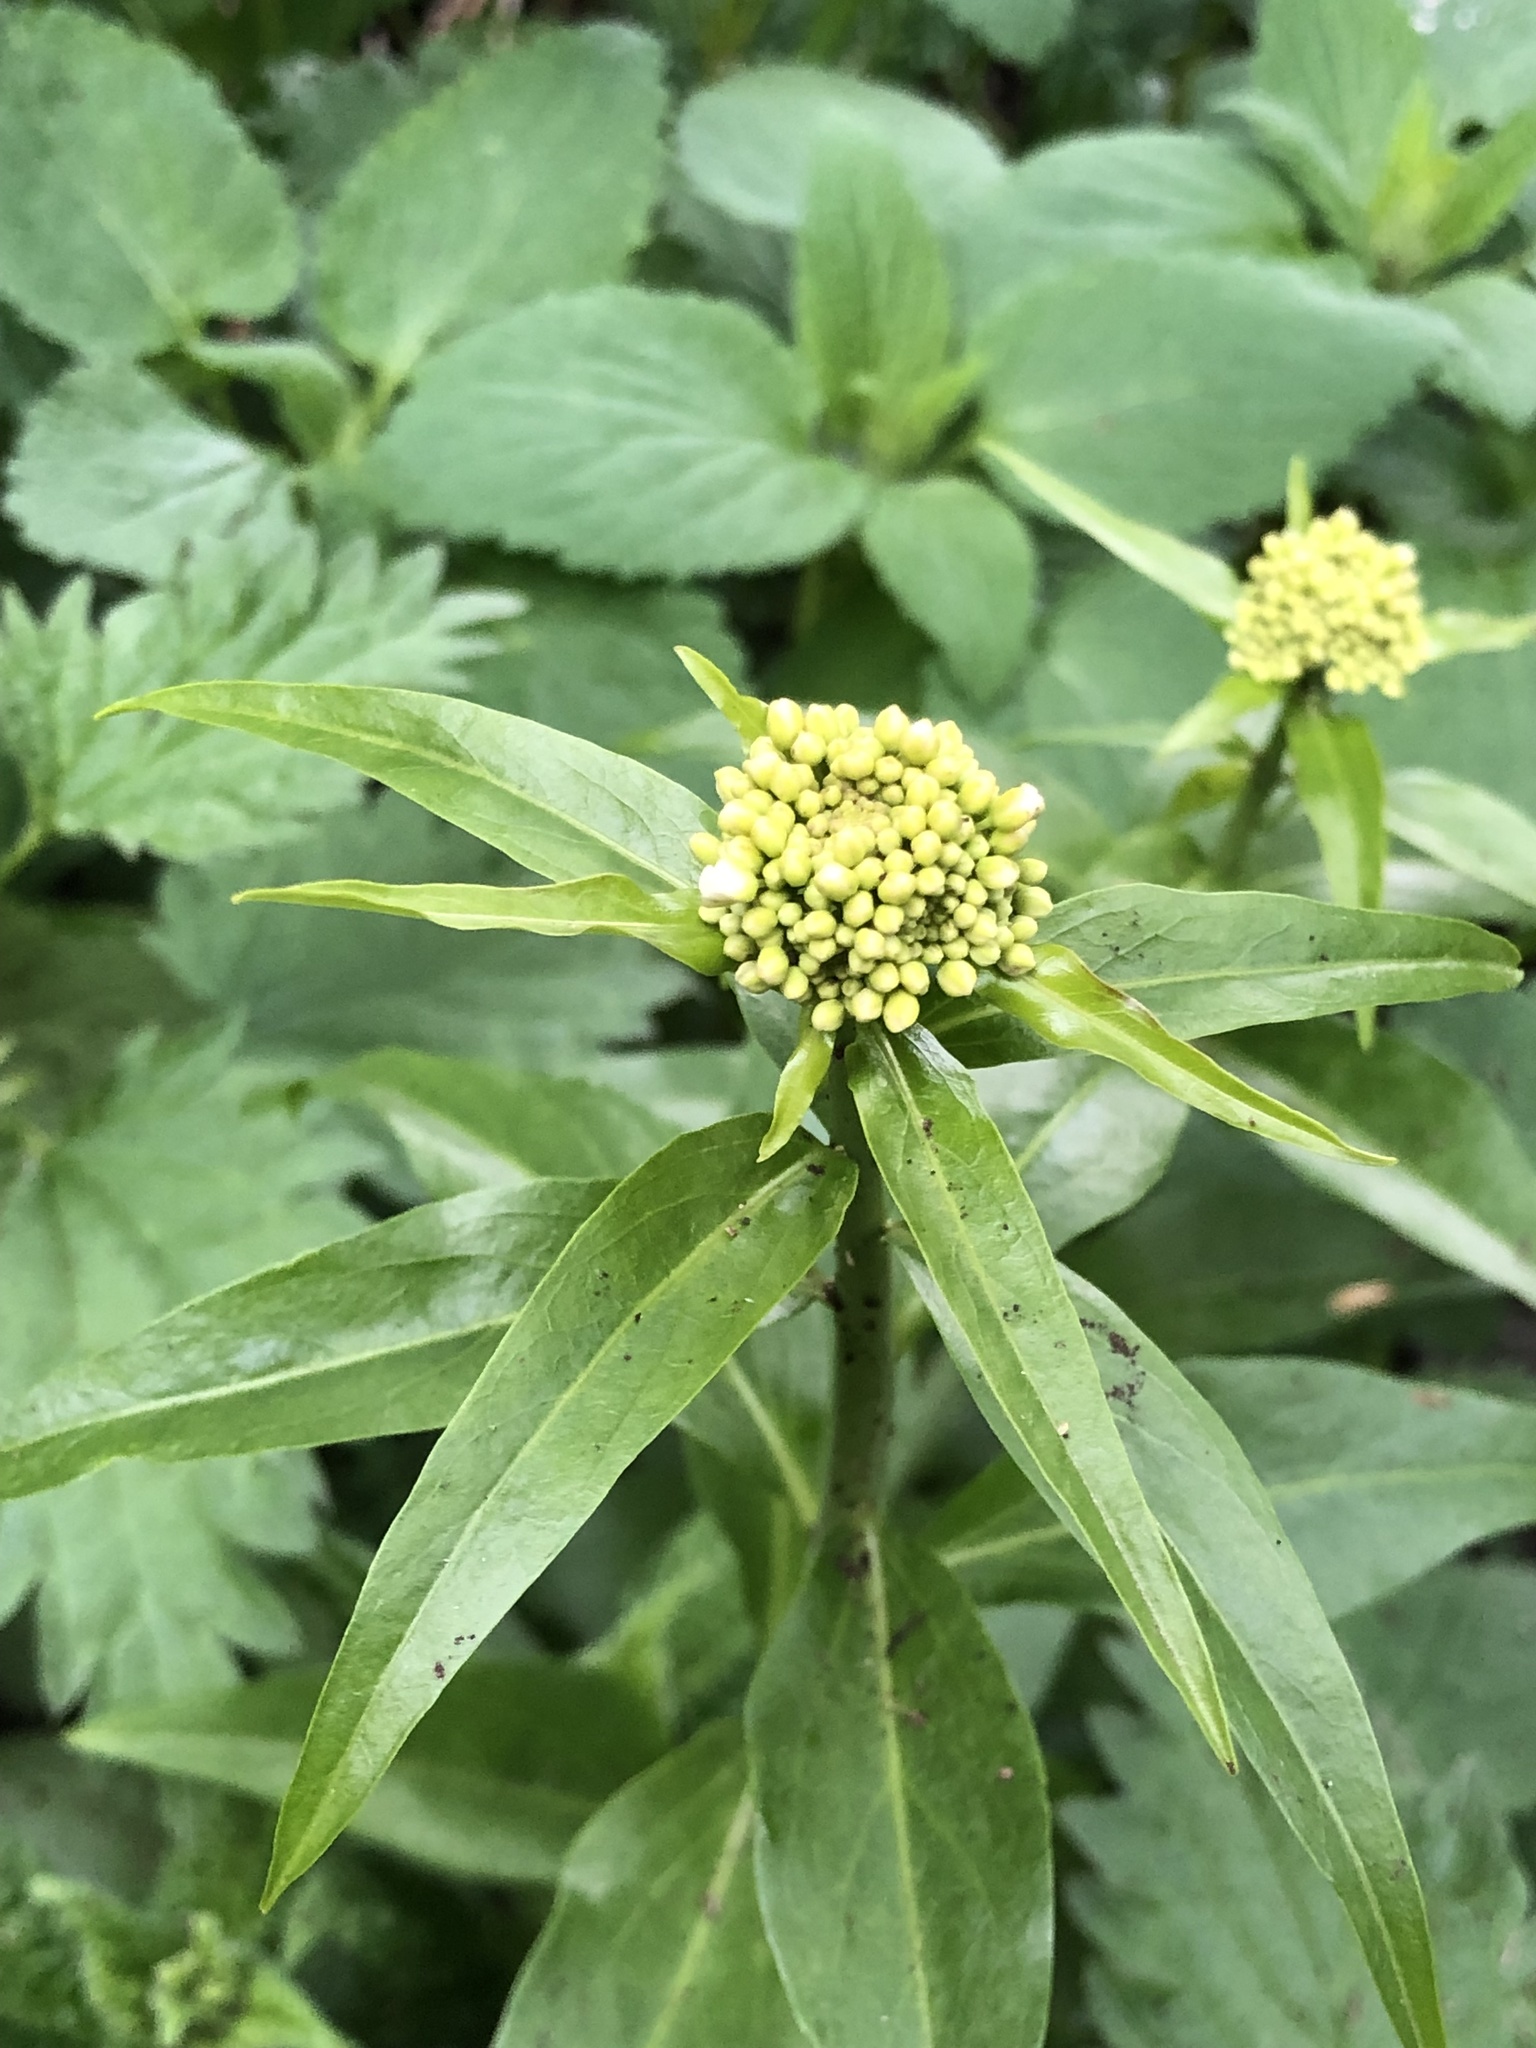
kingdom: Plantae
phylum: Tracheophyta
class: Magnoliopsida
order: Brassicales
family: Brassicaceae
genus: Eutrema
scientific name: Eutrema integrifolium
